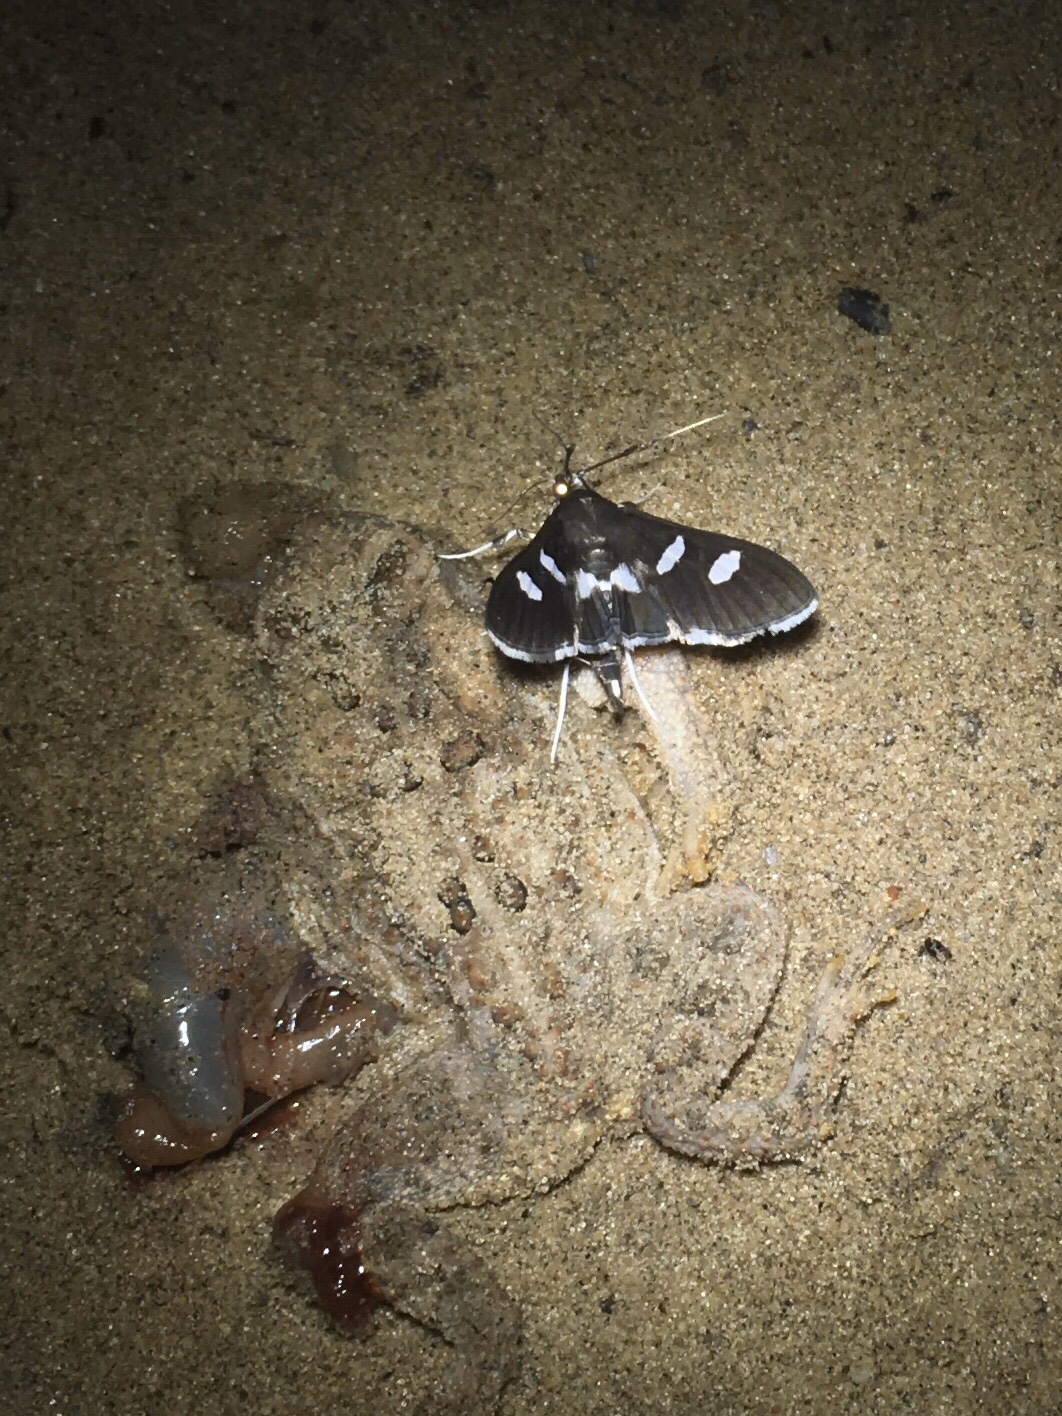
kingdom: Animalia
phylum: Arthropoda
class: Insecta
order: Lepidoptera
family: Crambidae
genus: Desmia
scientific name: Desmia
